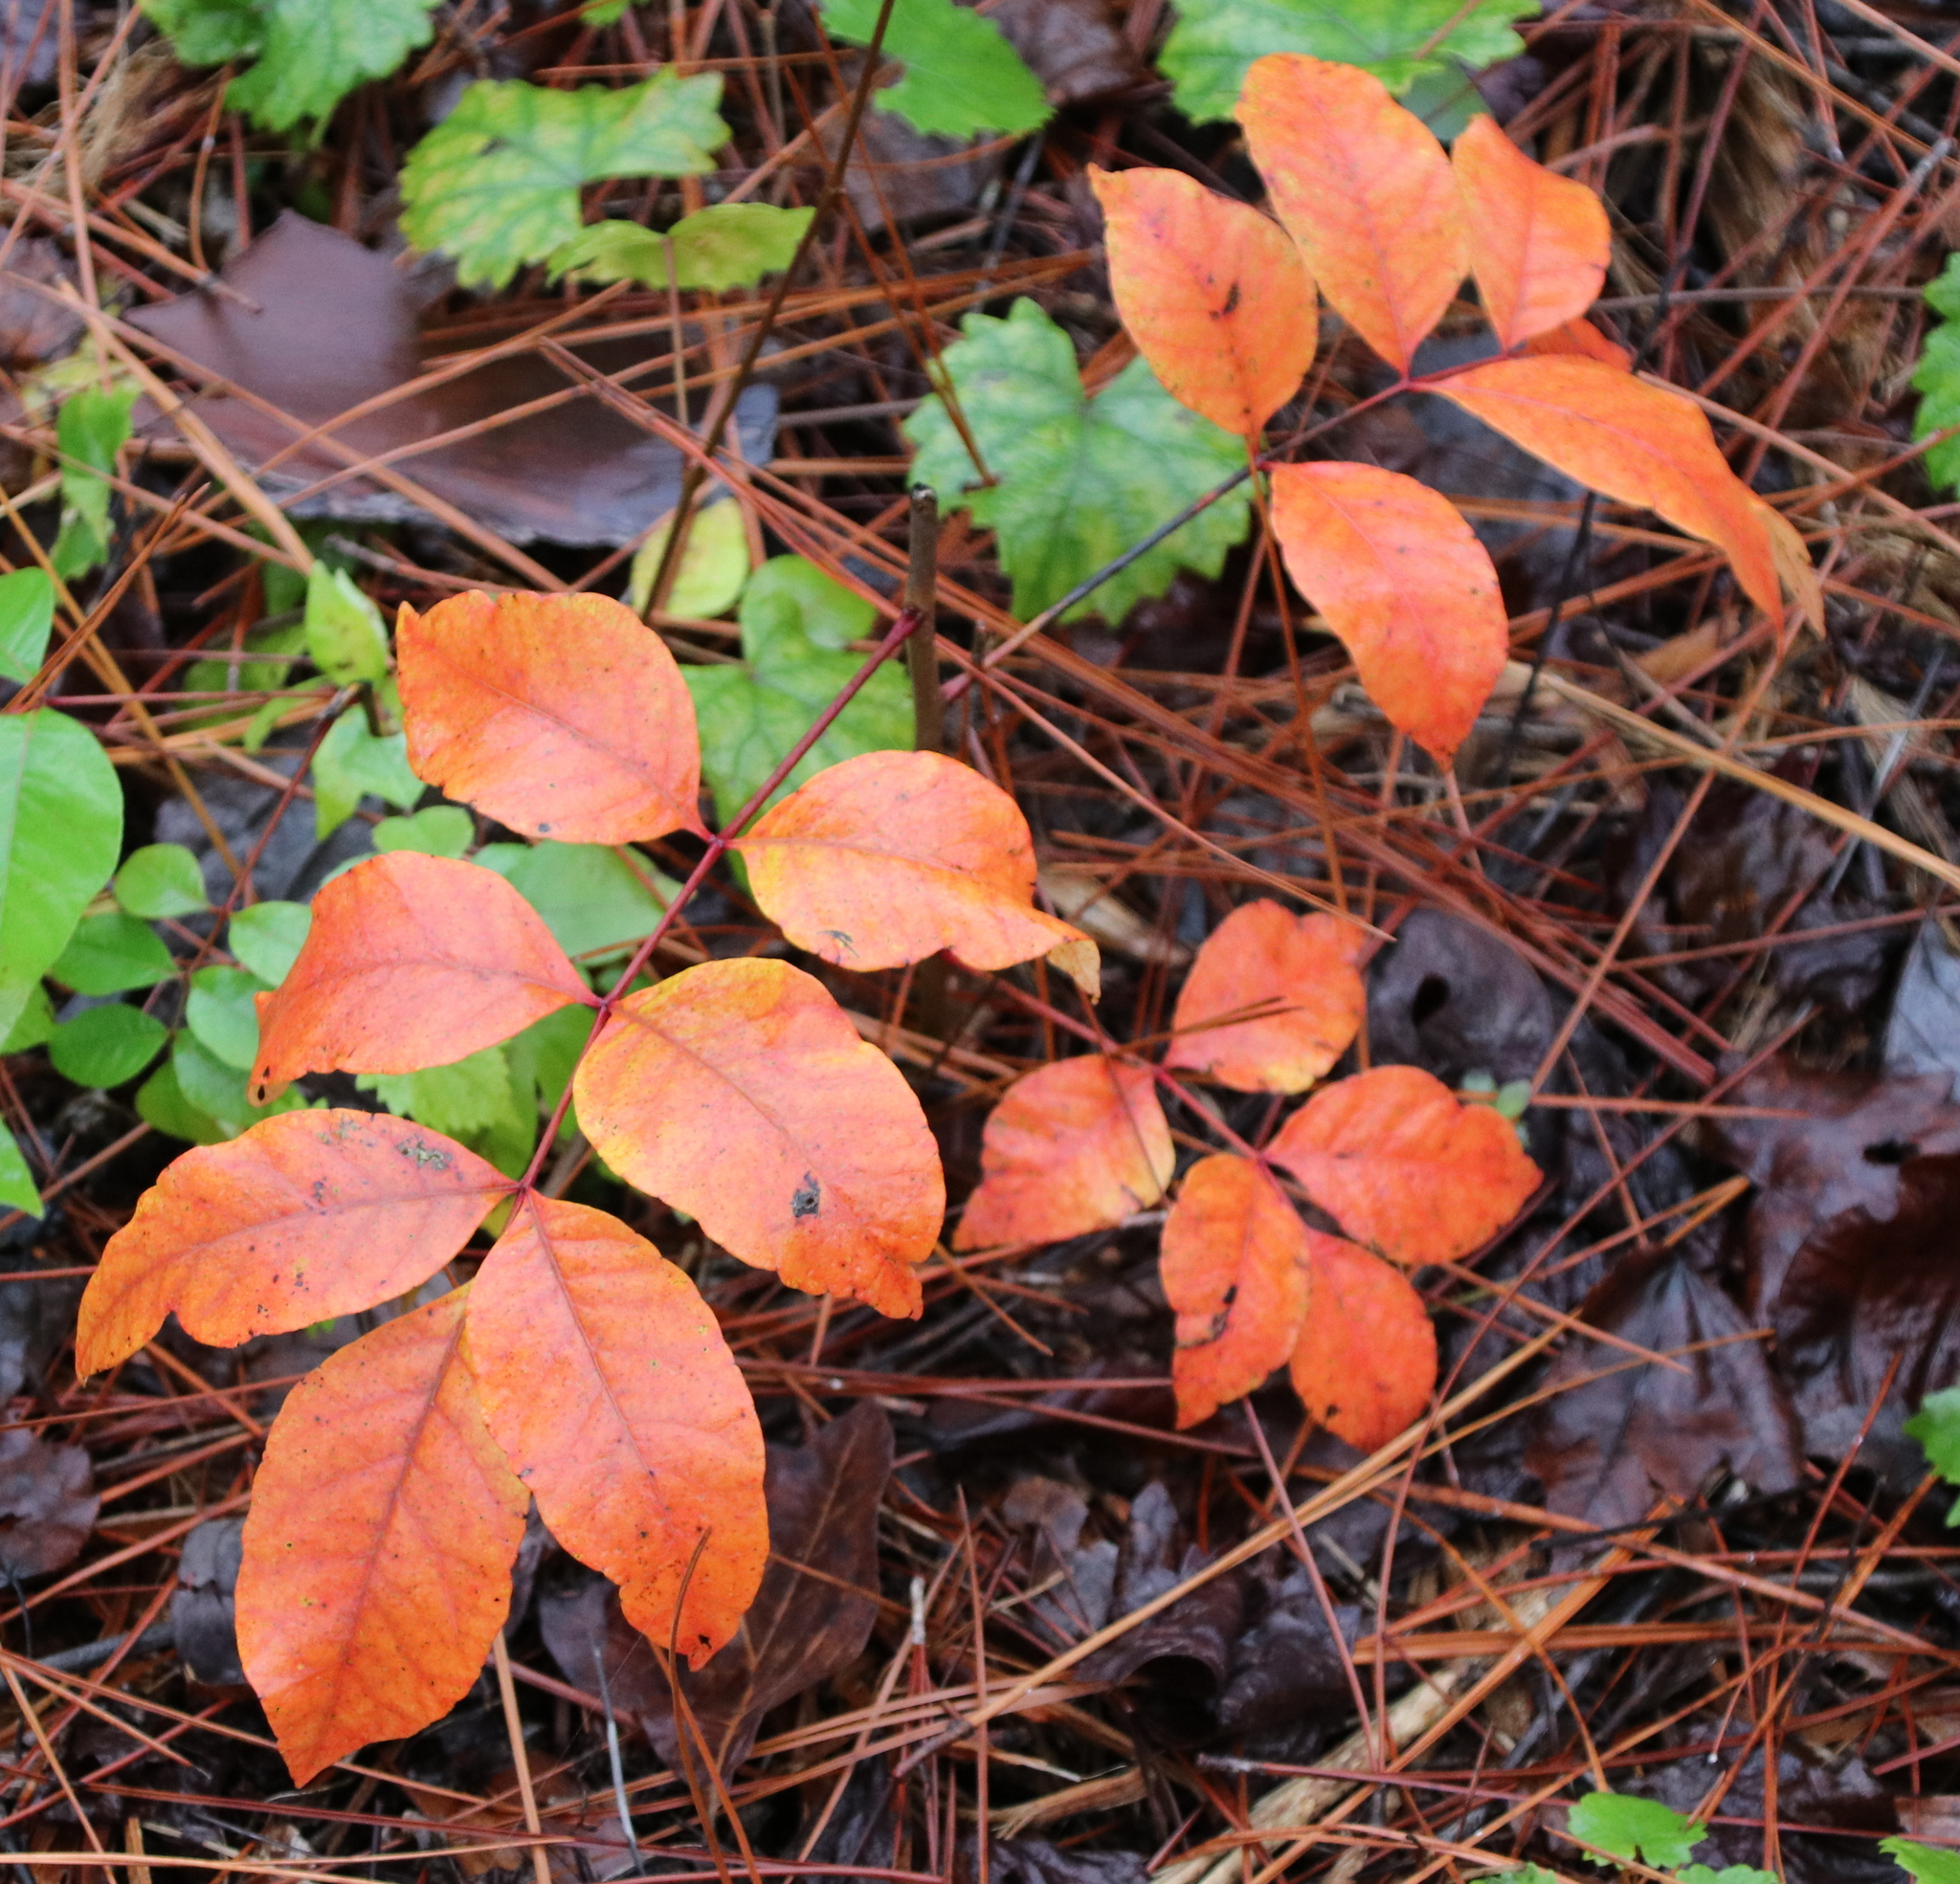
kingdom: Plantae
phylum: Tracheophyta
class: Magnoliopsida
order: Sapindales
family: Anacardiaceae
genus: Toxicodendron
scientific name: Toxicodendron vernix
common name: Poison sumac
